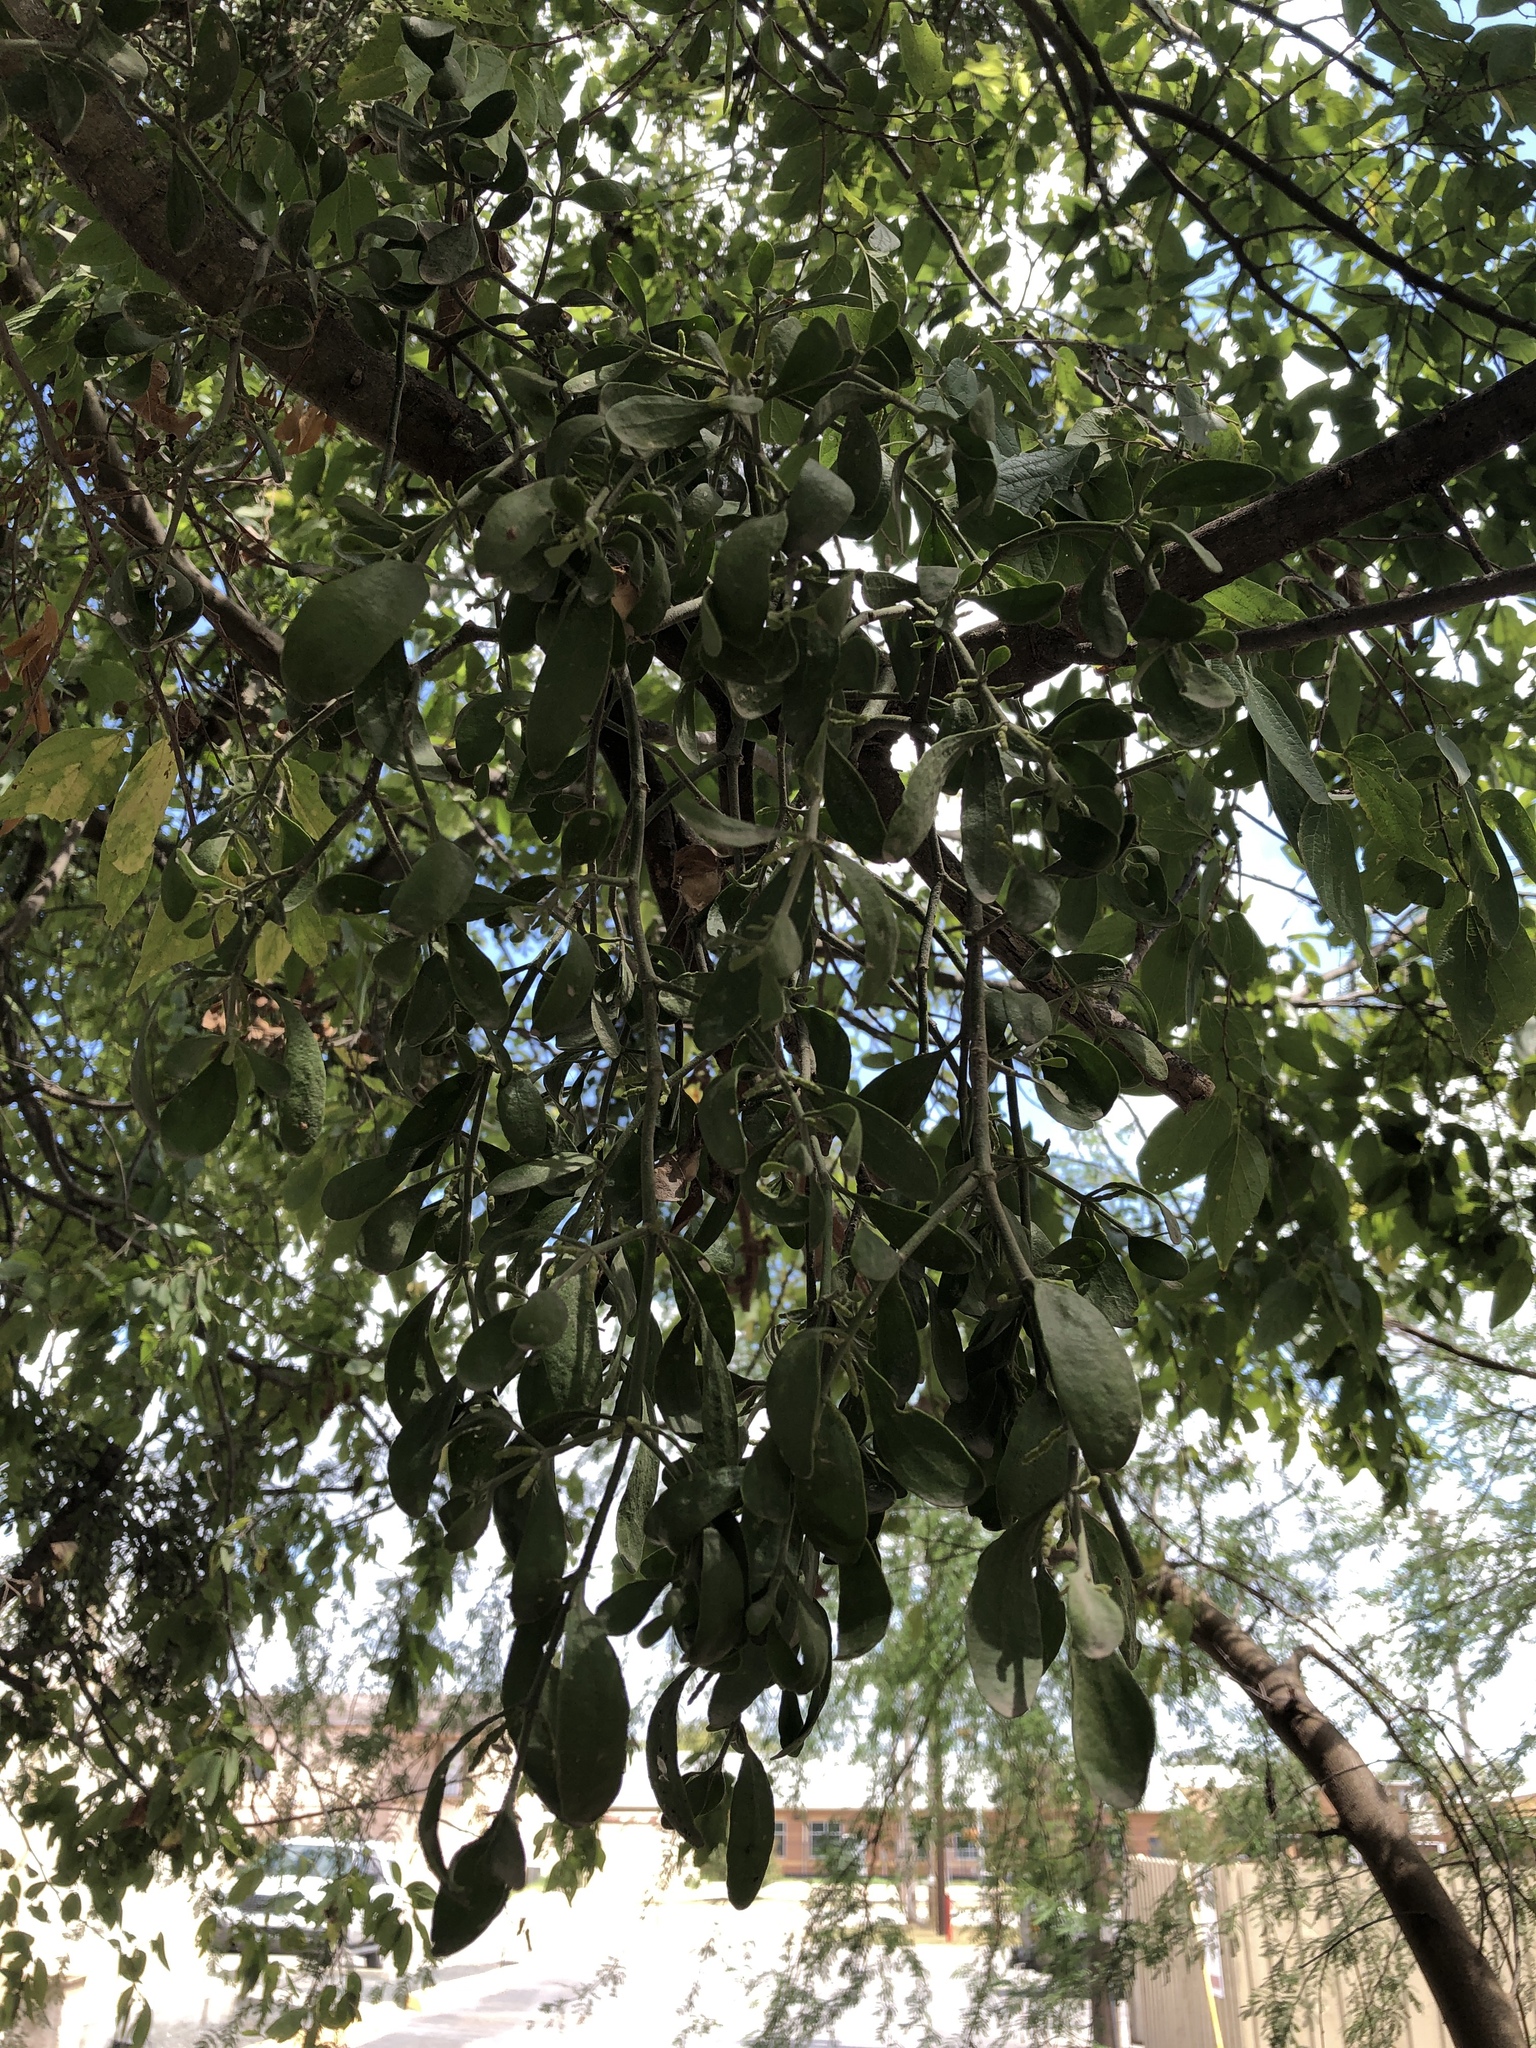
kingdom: Plantae
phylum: Tracheophyta
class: Magnoliopsida
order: Santalales
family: Viscaceae
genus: Phoradendron
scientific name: Phoradendron leucarpum
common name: Pacific mistletoe
